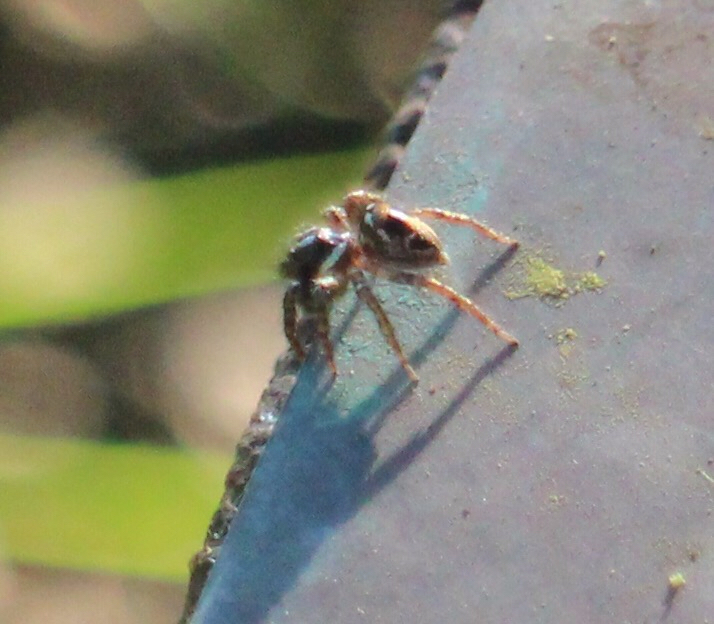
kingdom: Animalia
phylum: Arthropoda
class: Arachnida
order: Araneae
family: Salticidae
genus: Anasaitis
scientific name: Anasaitis canosa
